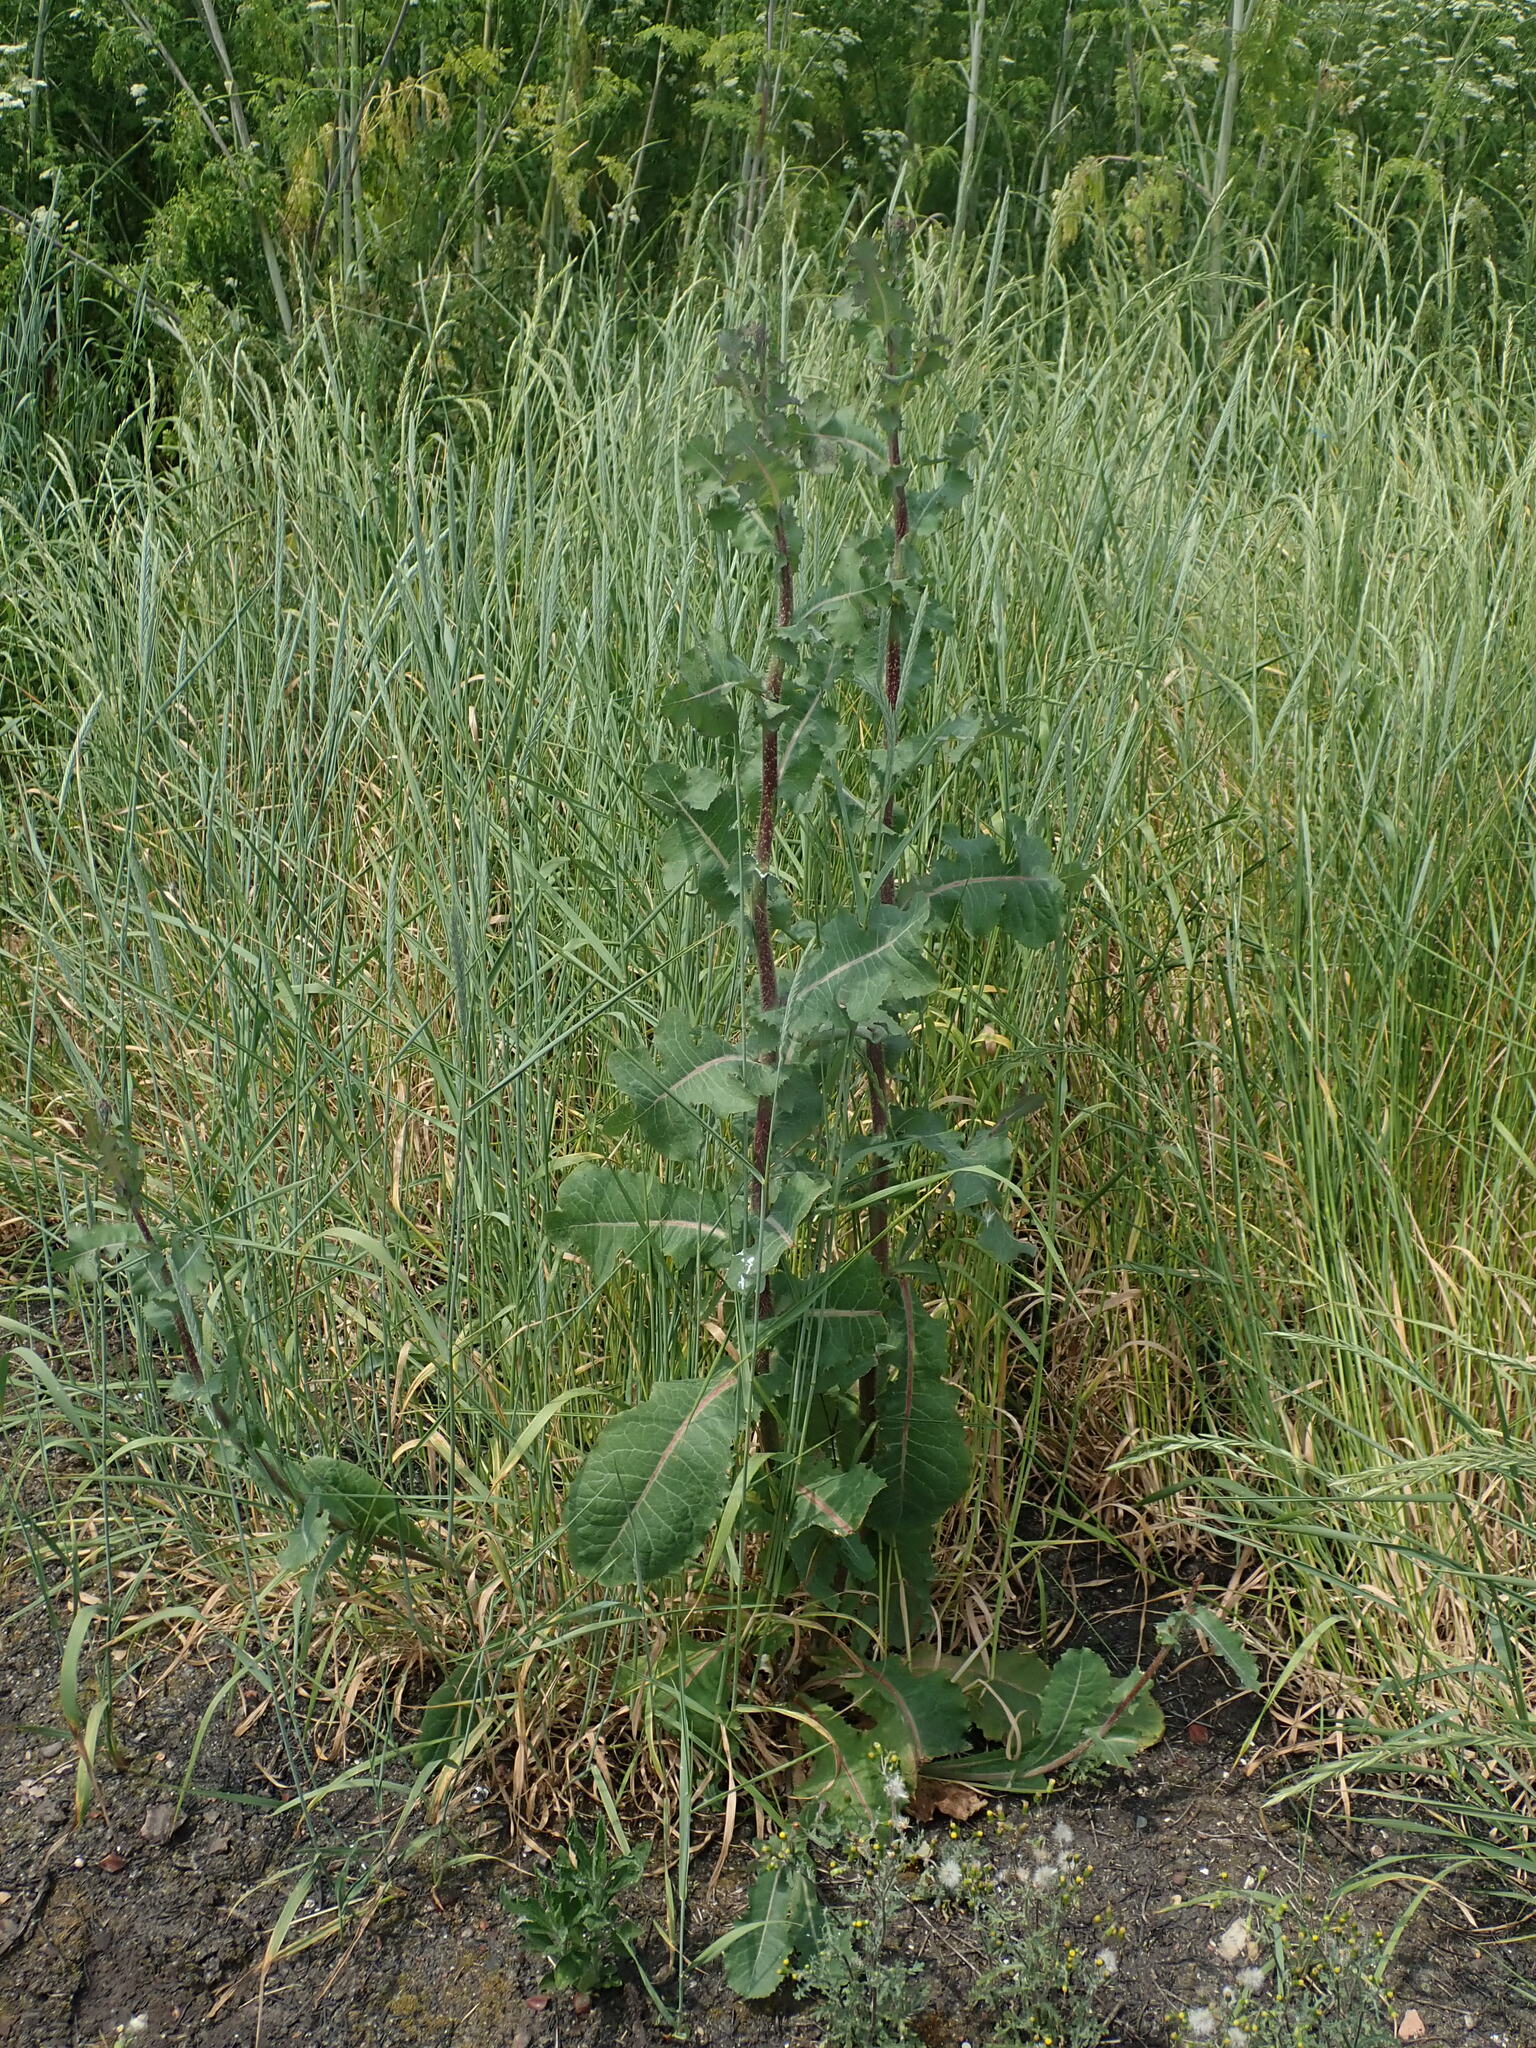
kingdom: Plantae
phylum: Tracheophyta
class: Magnoliopsida
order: Asterales
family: Asteraceae
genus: Lactuca
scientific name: Lactuca virosa
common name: Great lettuce
